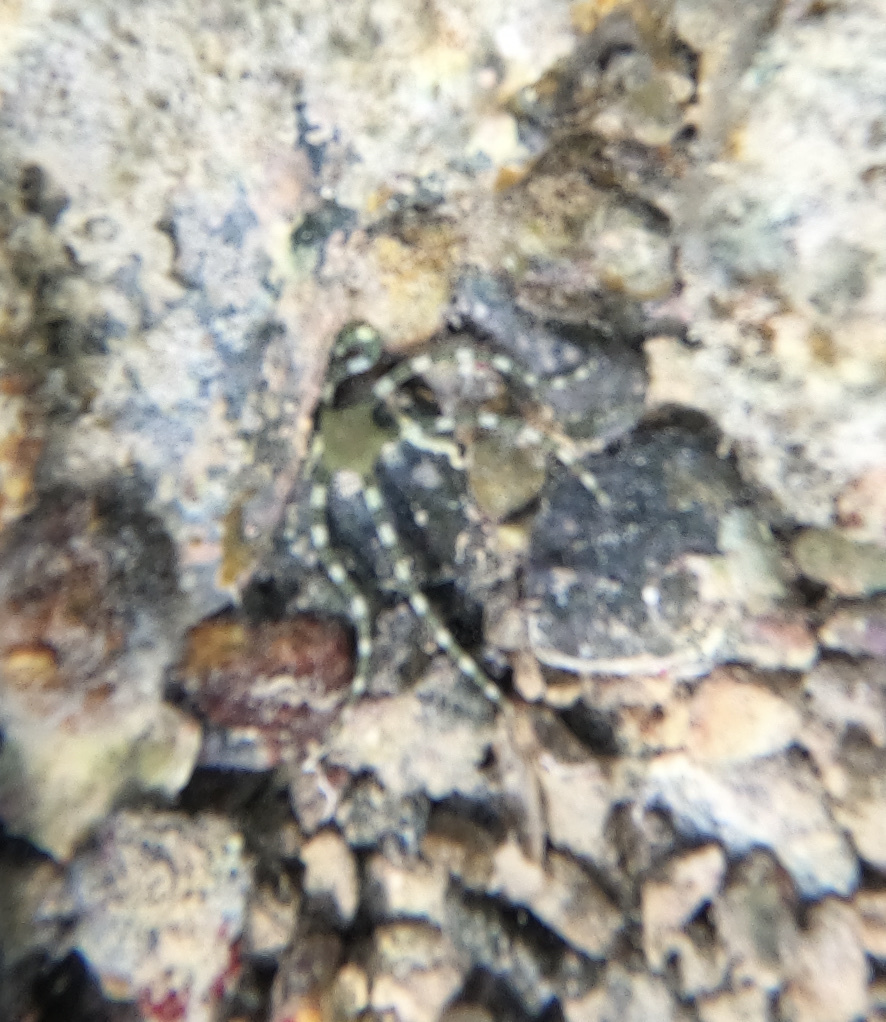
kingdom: Animalia
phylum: Echinodermata
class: Ophiuroidea
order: Ophiacanthida
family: Ophiodermatidae
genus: Ophioderma
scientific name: Ophioderma appressum
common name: Snakeskin brittle star
